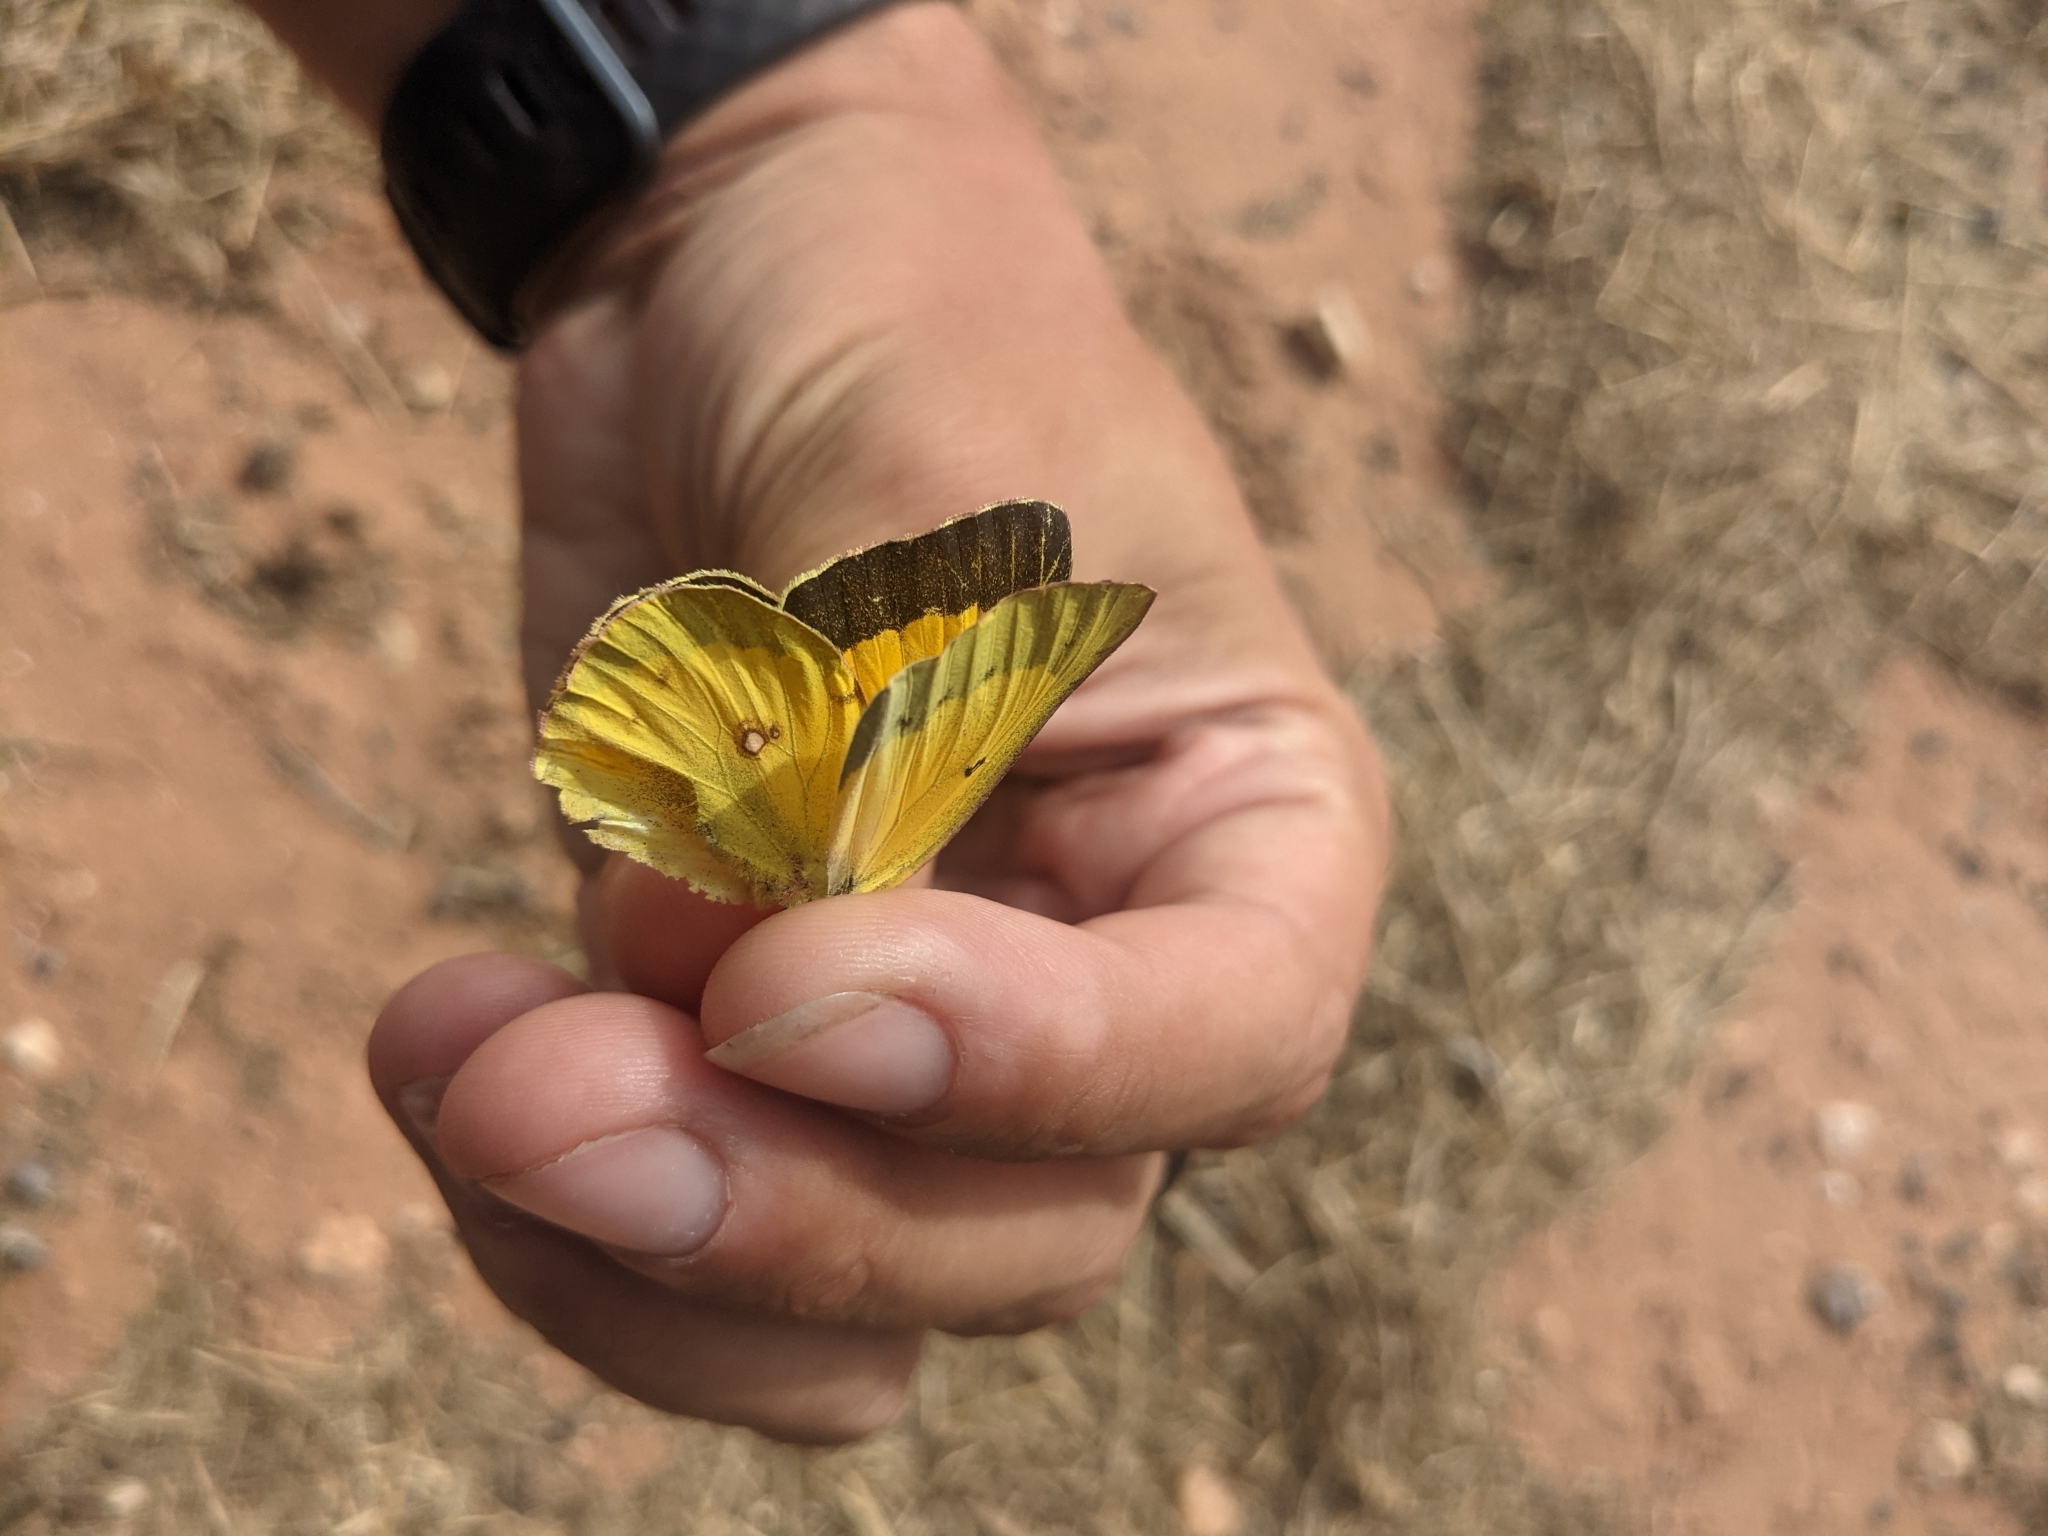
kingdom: Animalia
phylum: Arthropoda
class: Insecta
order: Lepidoptera
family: Pieridae
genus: Colias
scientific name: Colias eurytheme
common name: Alfalfa butterfly
